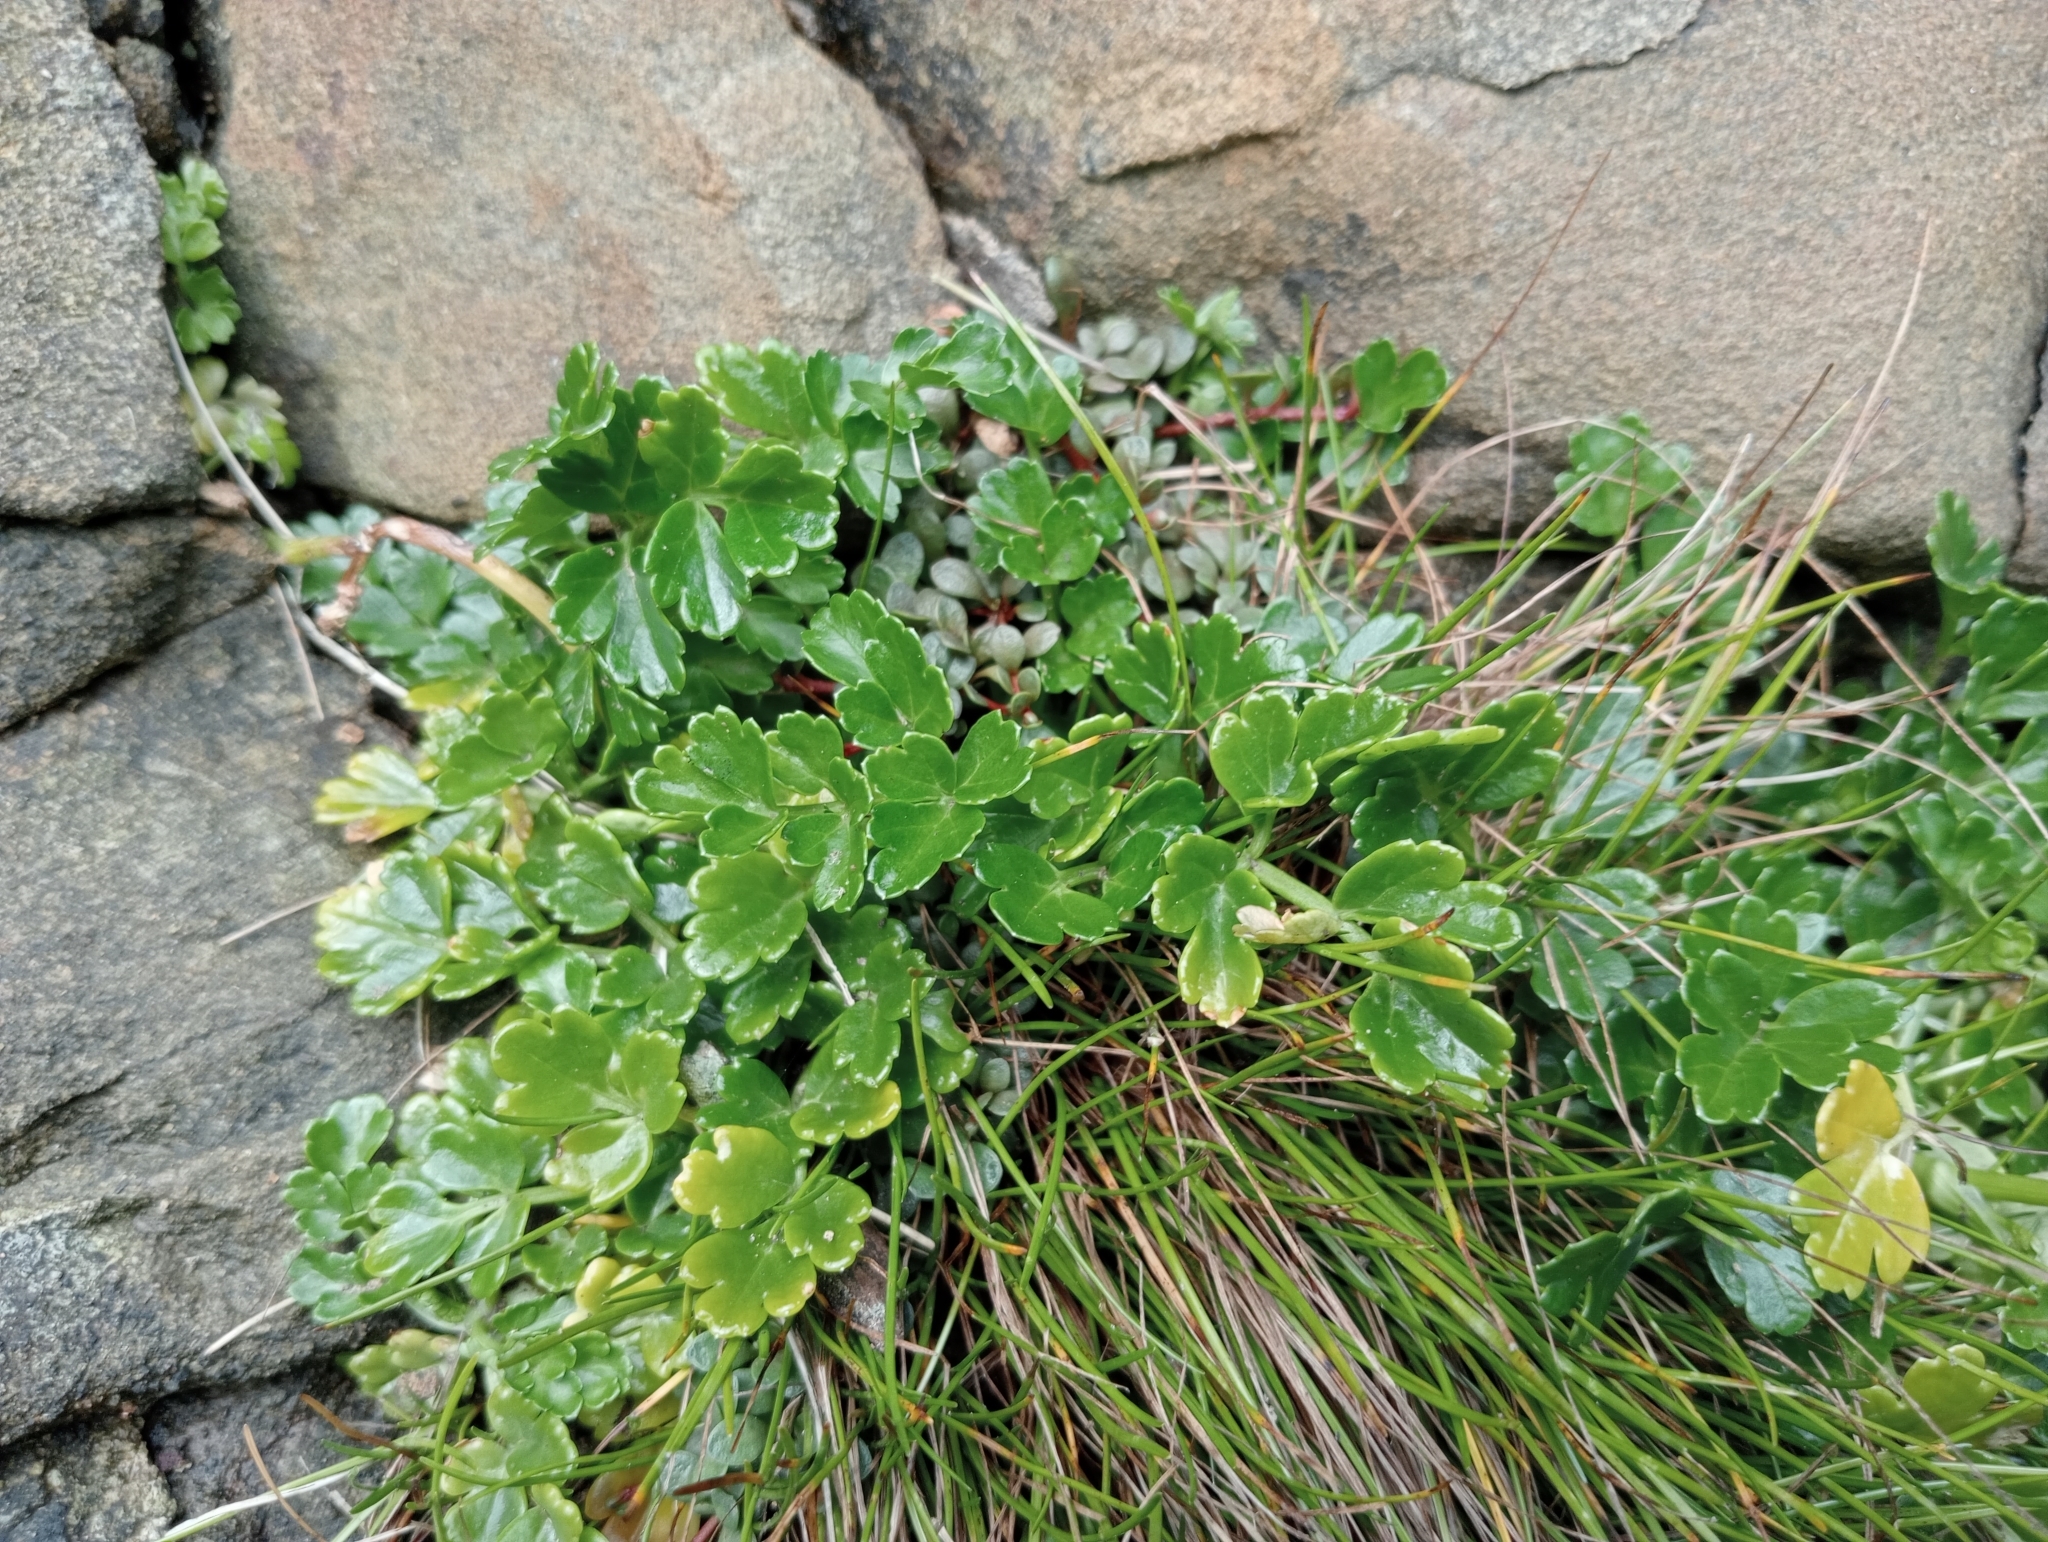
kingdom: Plantae
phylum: Tracheophyta
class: Magnoliopsida
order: Apiales
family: Apiaceae
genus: Apium
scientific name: Apium prostratum
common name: Prostrate marshwort
